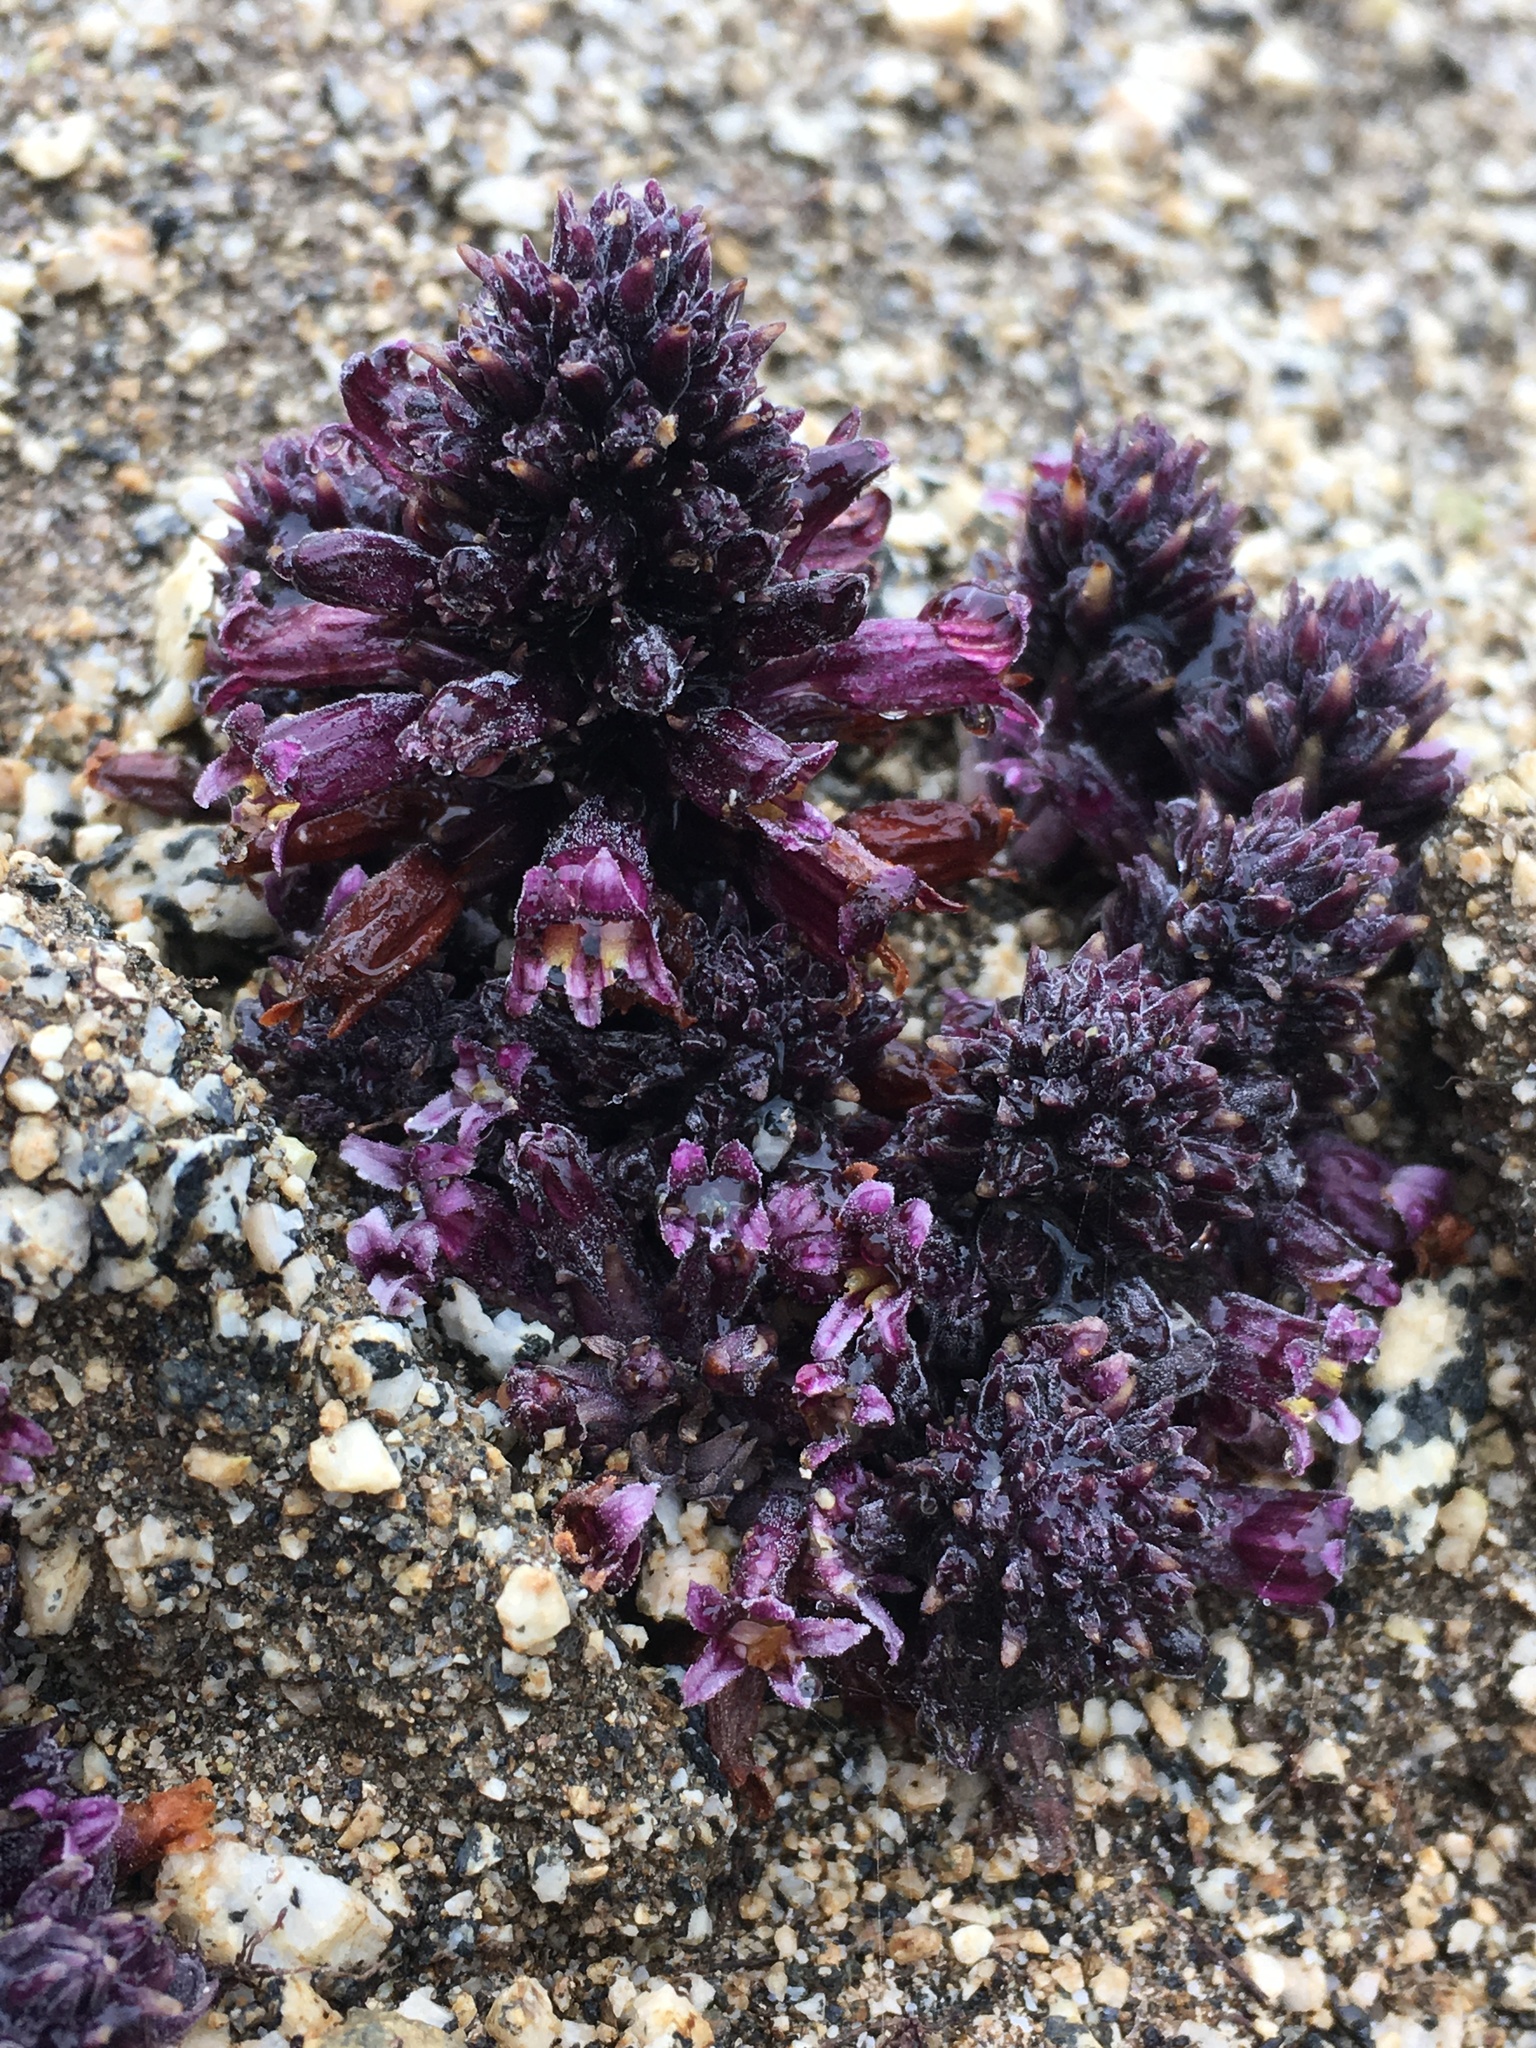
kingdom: Plantae
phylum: Tracheophyta
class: Magnoliopsida
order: Lamiales
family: Orobanchaceae
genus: Aphyllon
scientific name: Aphyllon tuberosum
